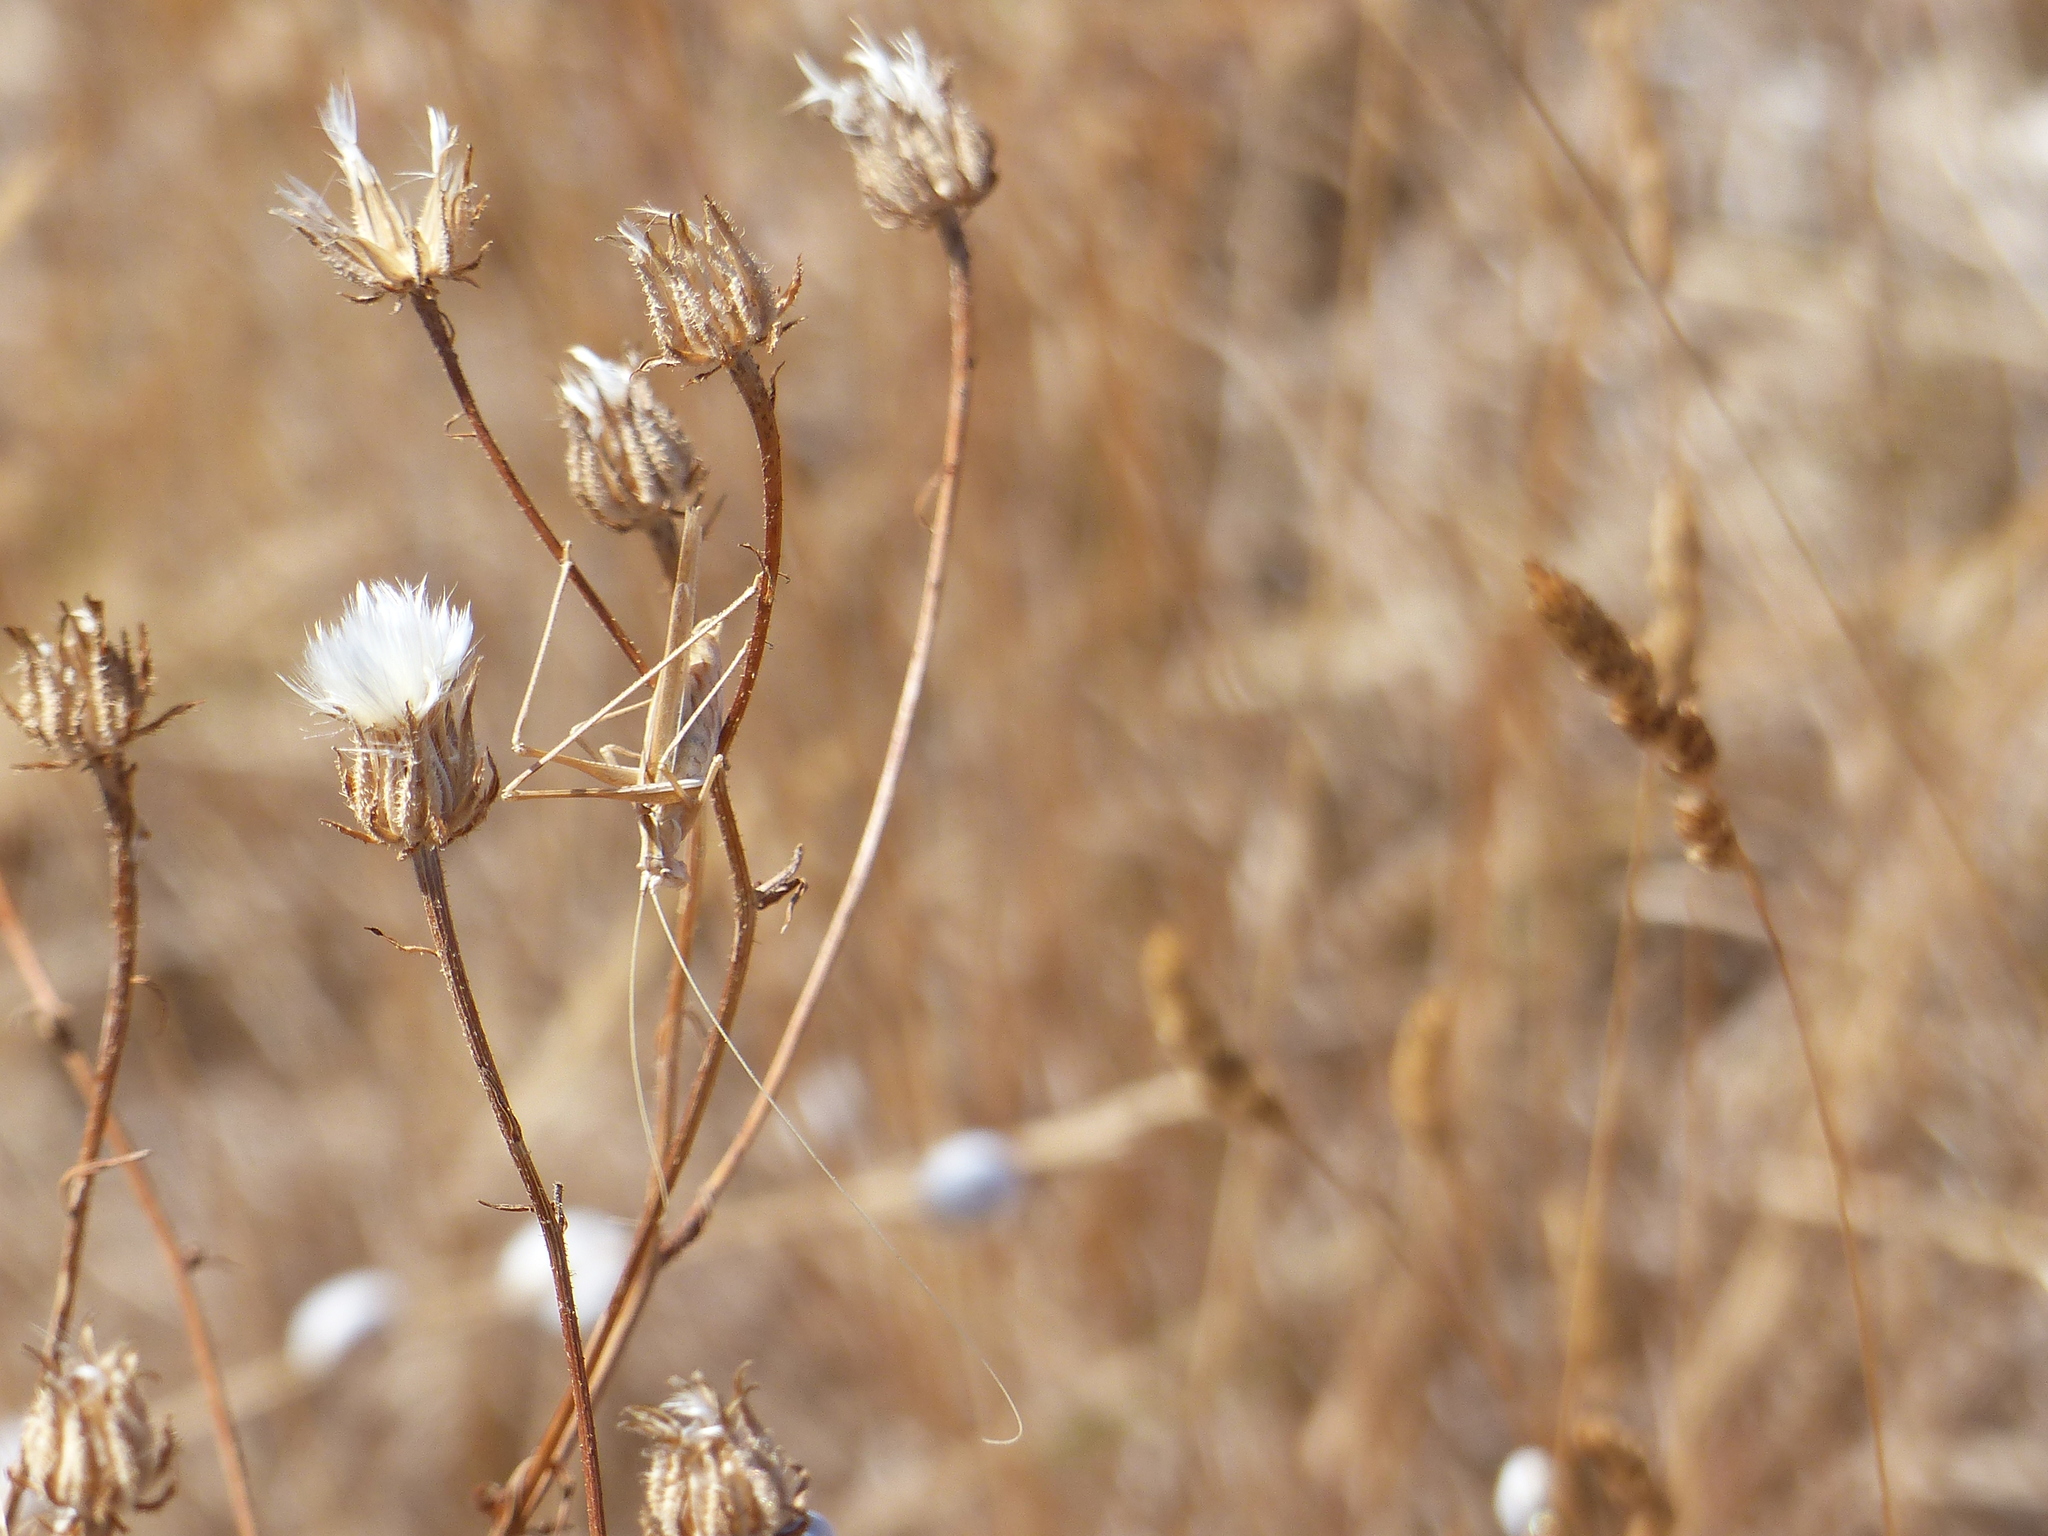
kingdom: Animalia
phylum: Arthropoda
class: Insecta
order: Orthoptera
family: Tettigoniidae
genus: Tylopsis
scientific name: Tylopsis lilifolia
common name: Lily bush-cricket
